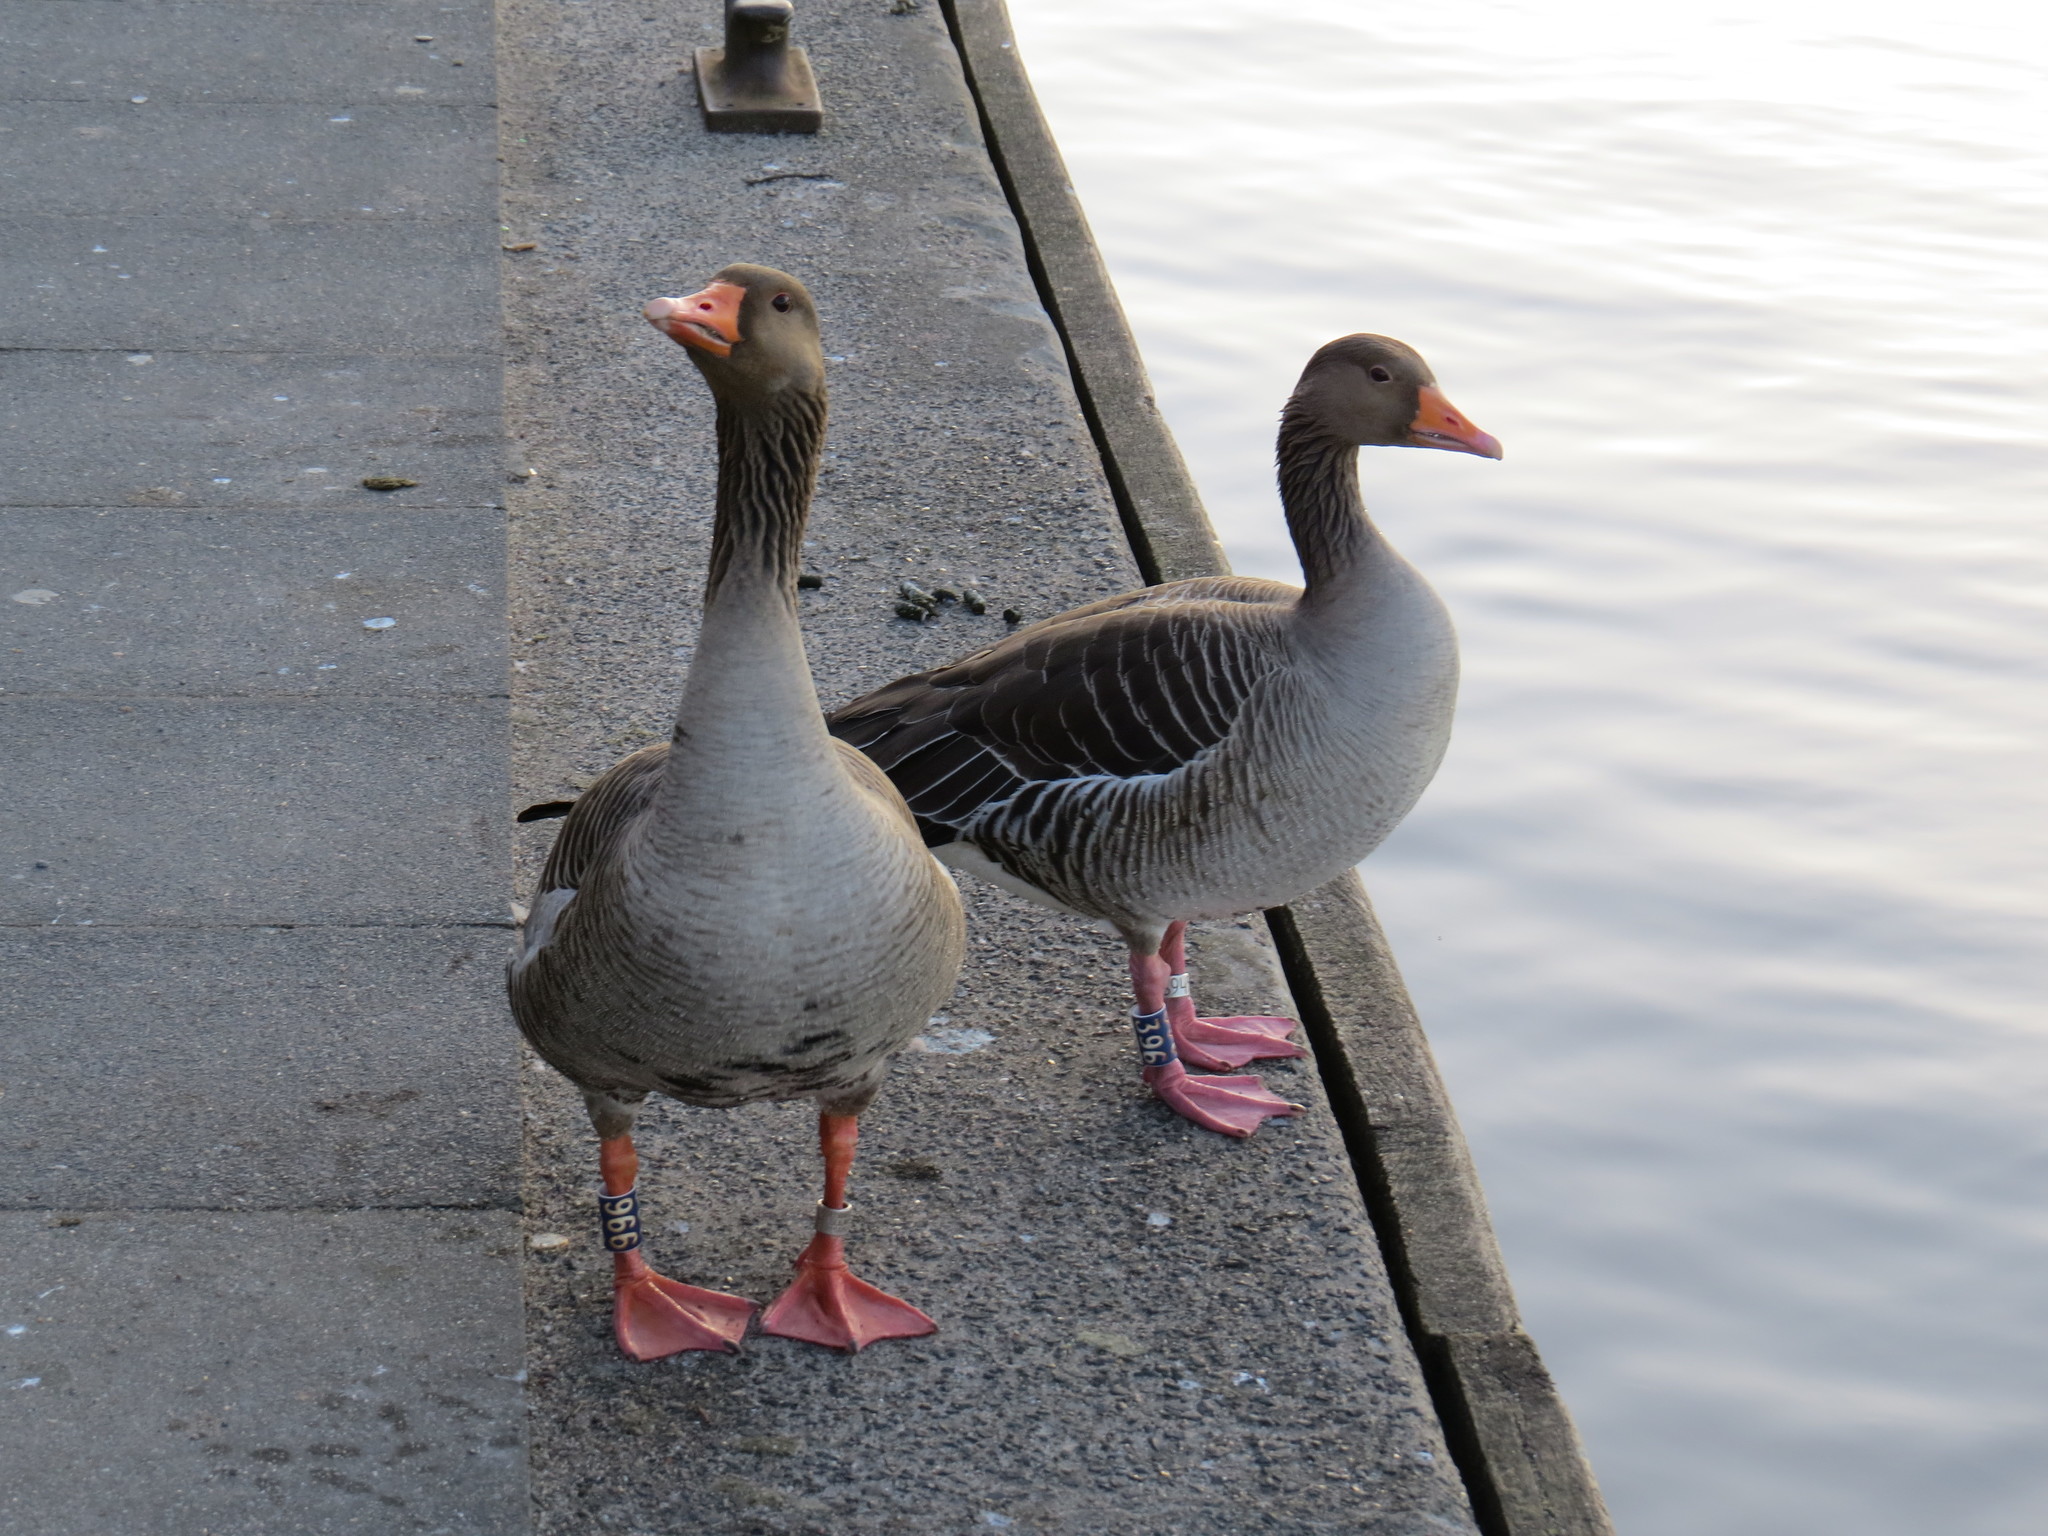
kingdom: Animalia
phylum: Chordata
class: Aves
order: Anseriformes
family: Anatidae
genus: Anser
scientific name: Anser anser
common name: Greylag goose
